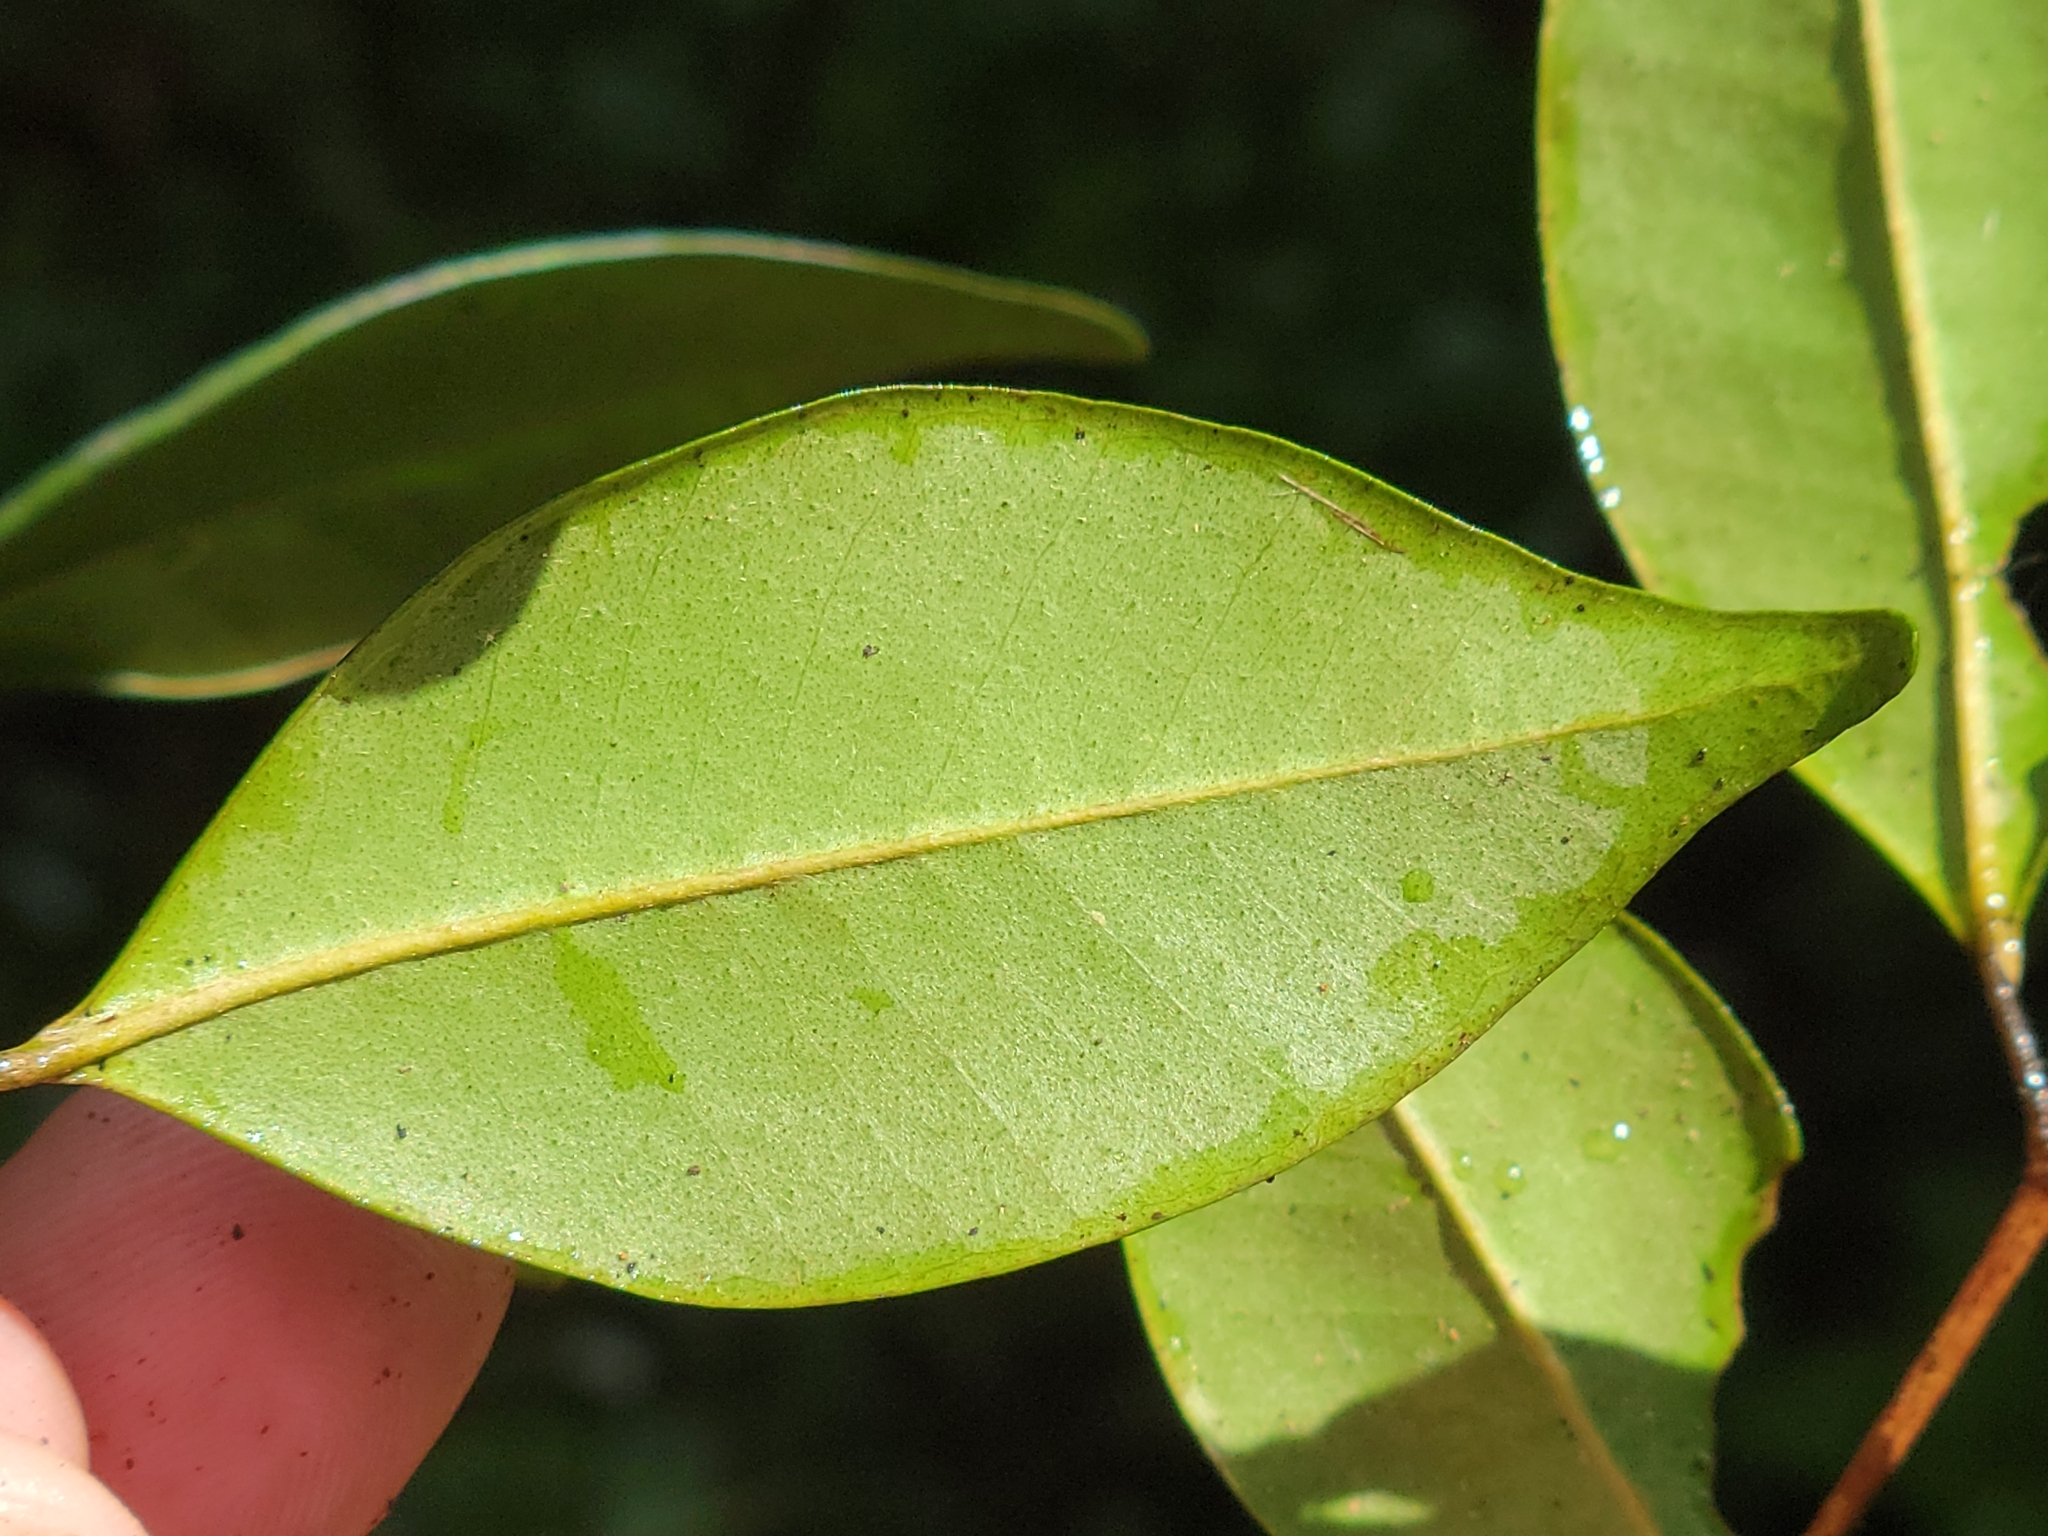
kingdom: Plantae
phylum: Tracheophyta
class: Magnoliopsida
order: Myrtales
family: Myrtaceae
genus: Myrcia
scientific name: Myrcia chytraculia
